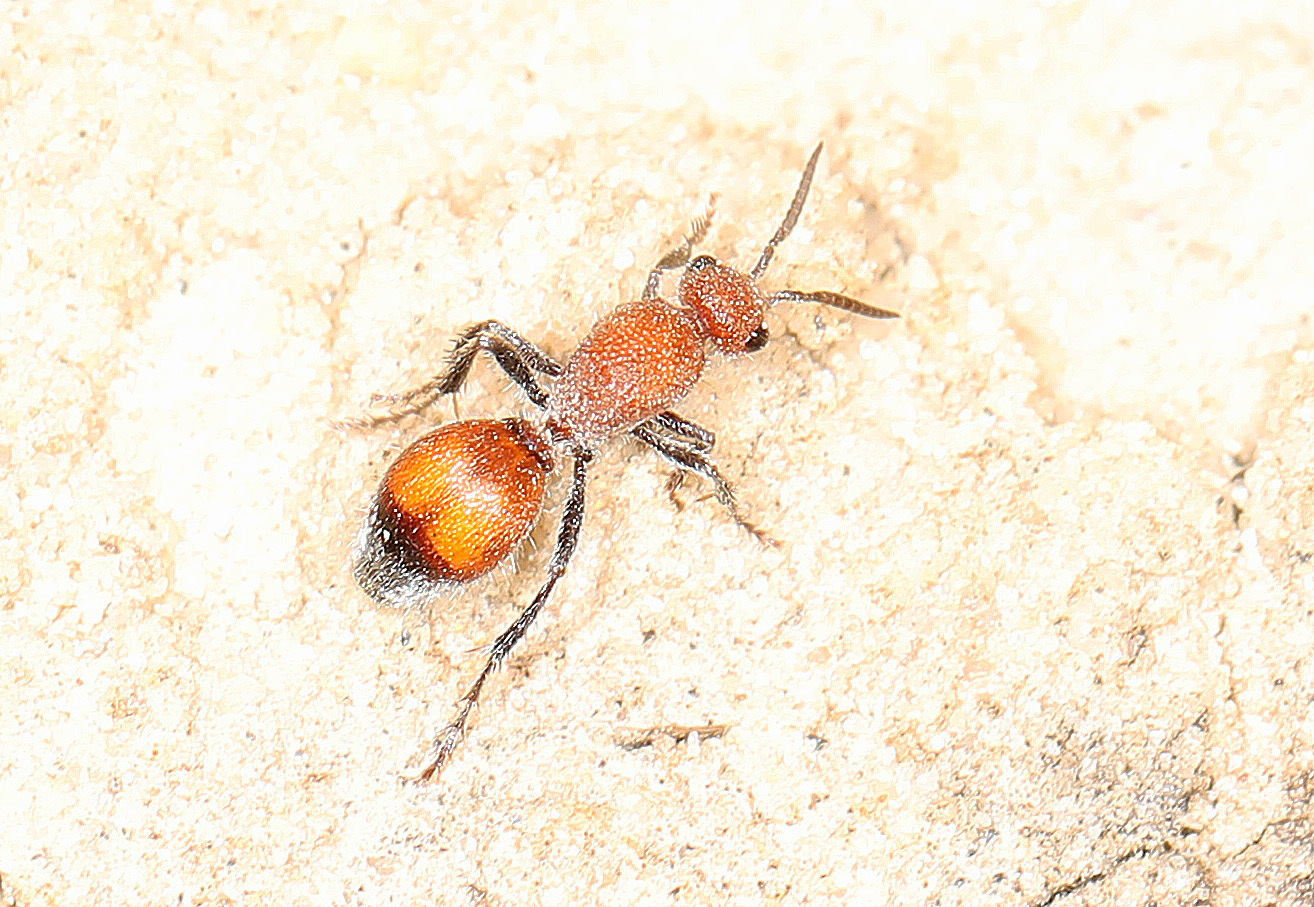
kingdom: Animalia
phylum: Arthropoda
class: Insecta
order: Hymenoptera
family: Mutillidae
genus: Dasymutilla
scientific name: Dasymutilla
